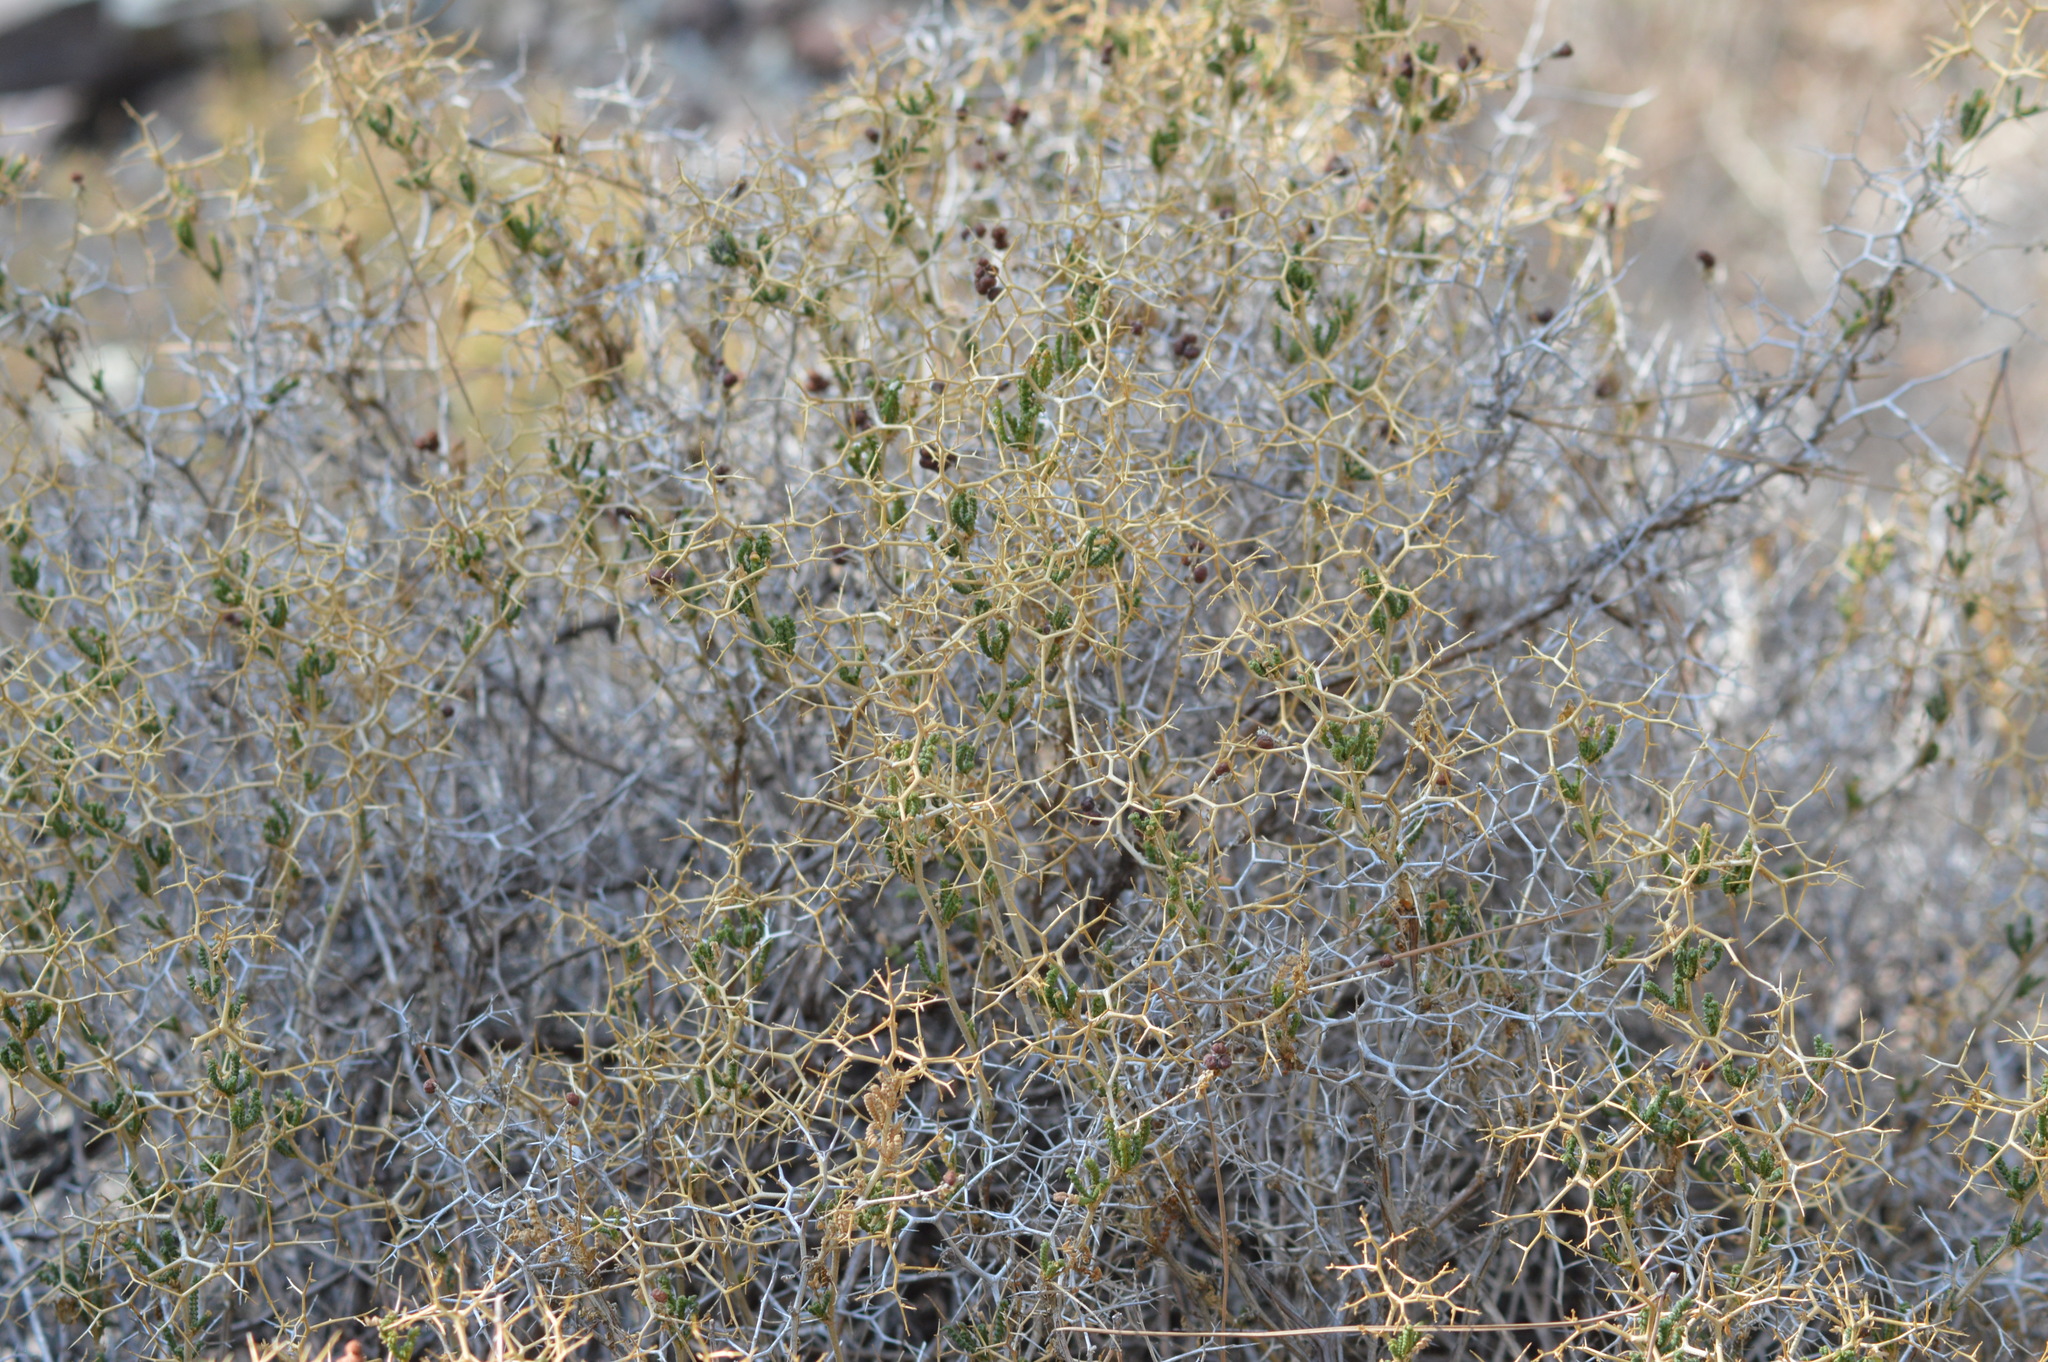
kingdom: Plantae
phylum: Tracheophyta
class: Magnoliopsida
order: Rosales
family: Rosaceae
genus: Sarcopoterium
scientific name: Sarcopoterium spinosum
